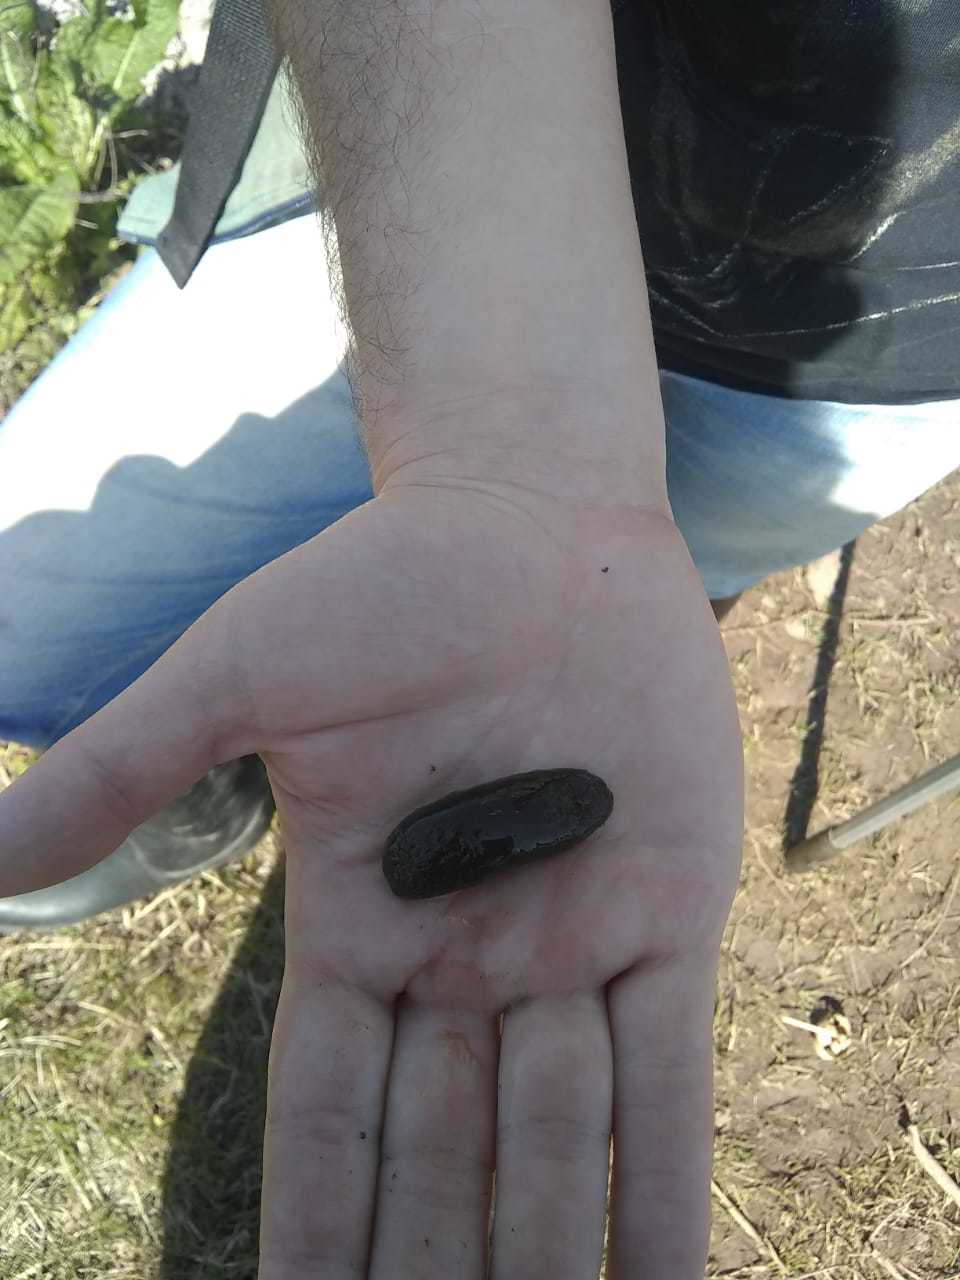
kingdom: Animalia
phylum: Chordata
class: Mammalia
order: Rodentia
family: Myocastoridae
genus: Myocastor
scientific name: Myocastor coypus
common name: Coypu
